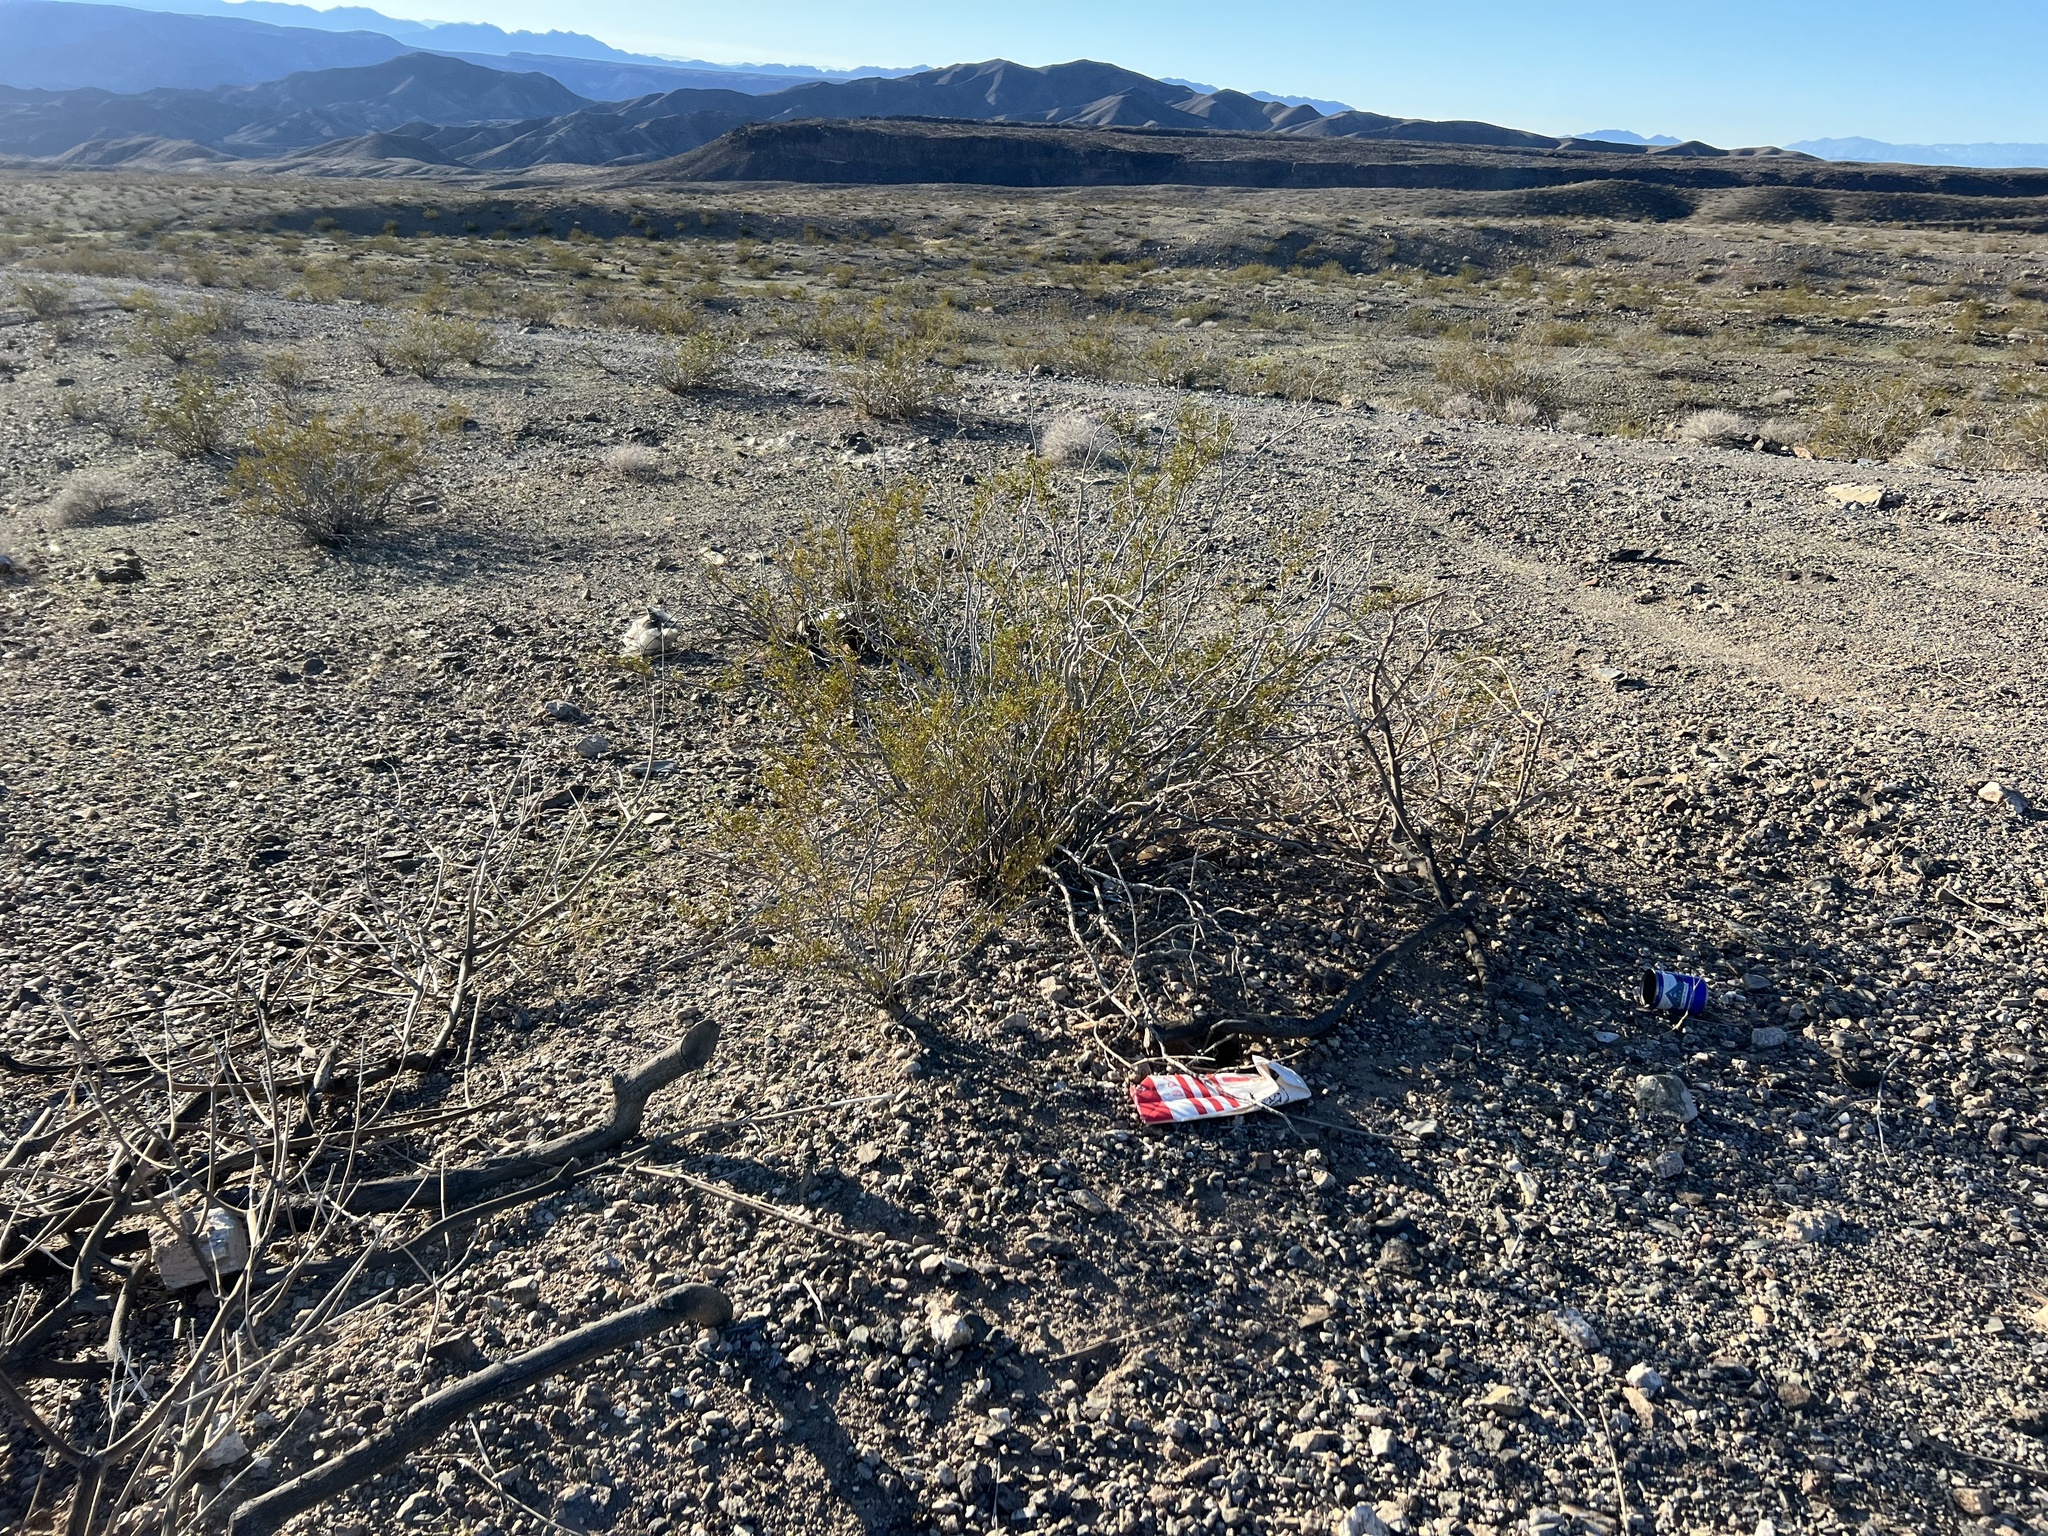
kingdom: Plantae
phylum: Tracheophyta
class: Magnoliopsida
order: Zygophyllales
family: Zygophyllaceae
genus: Larrea
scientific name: Larrea tridentata
